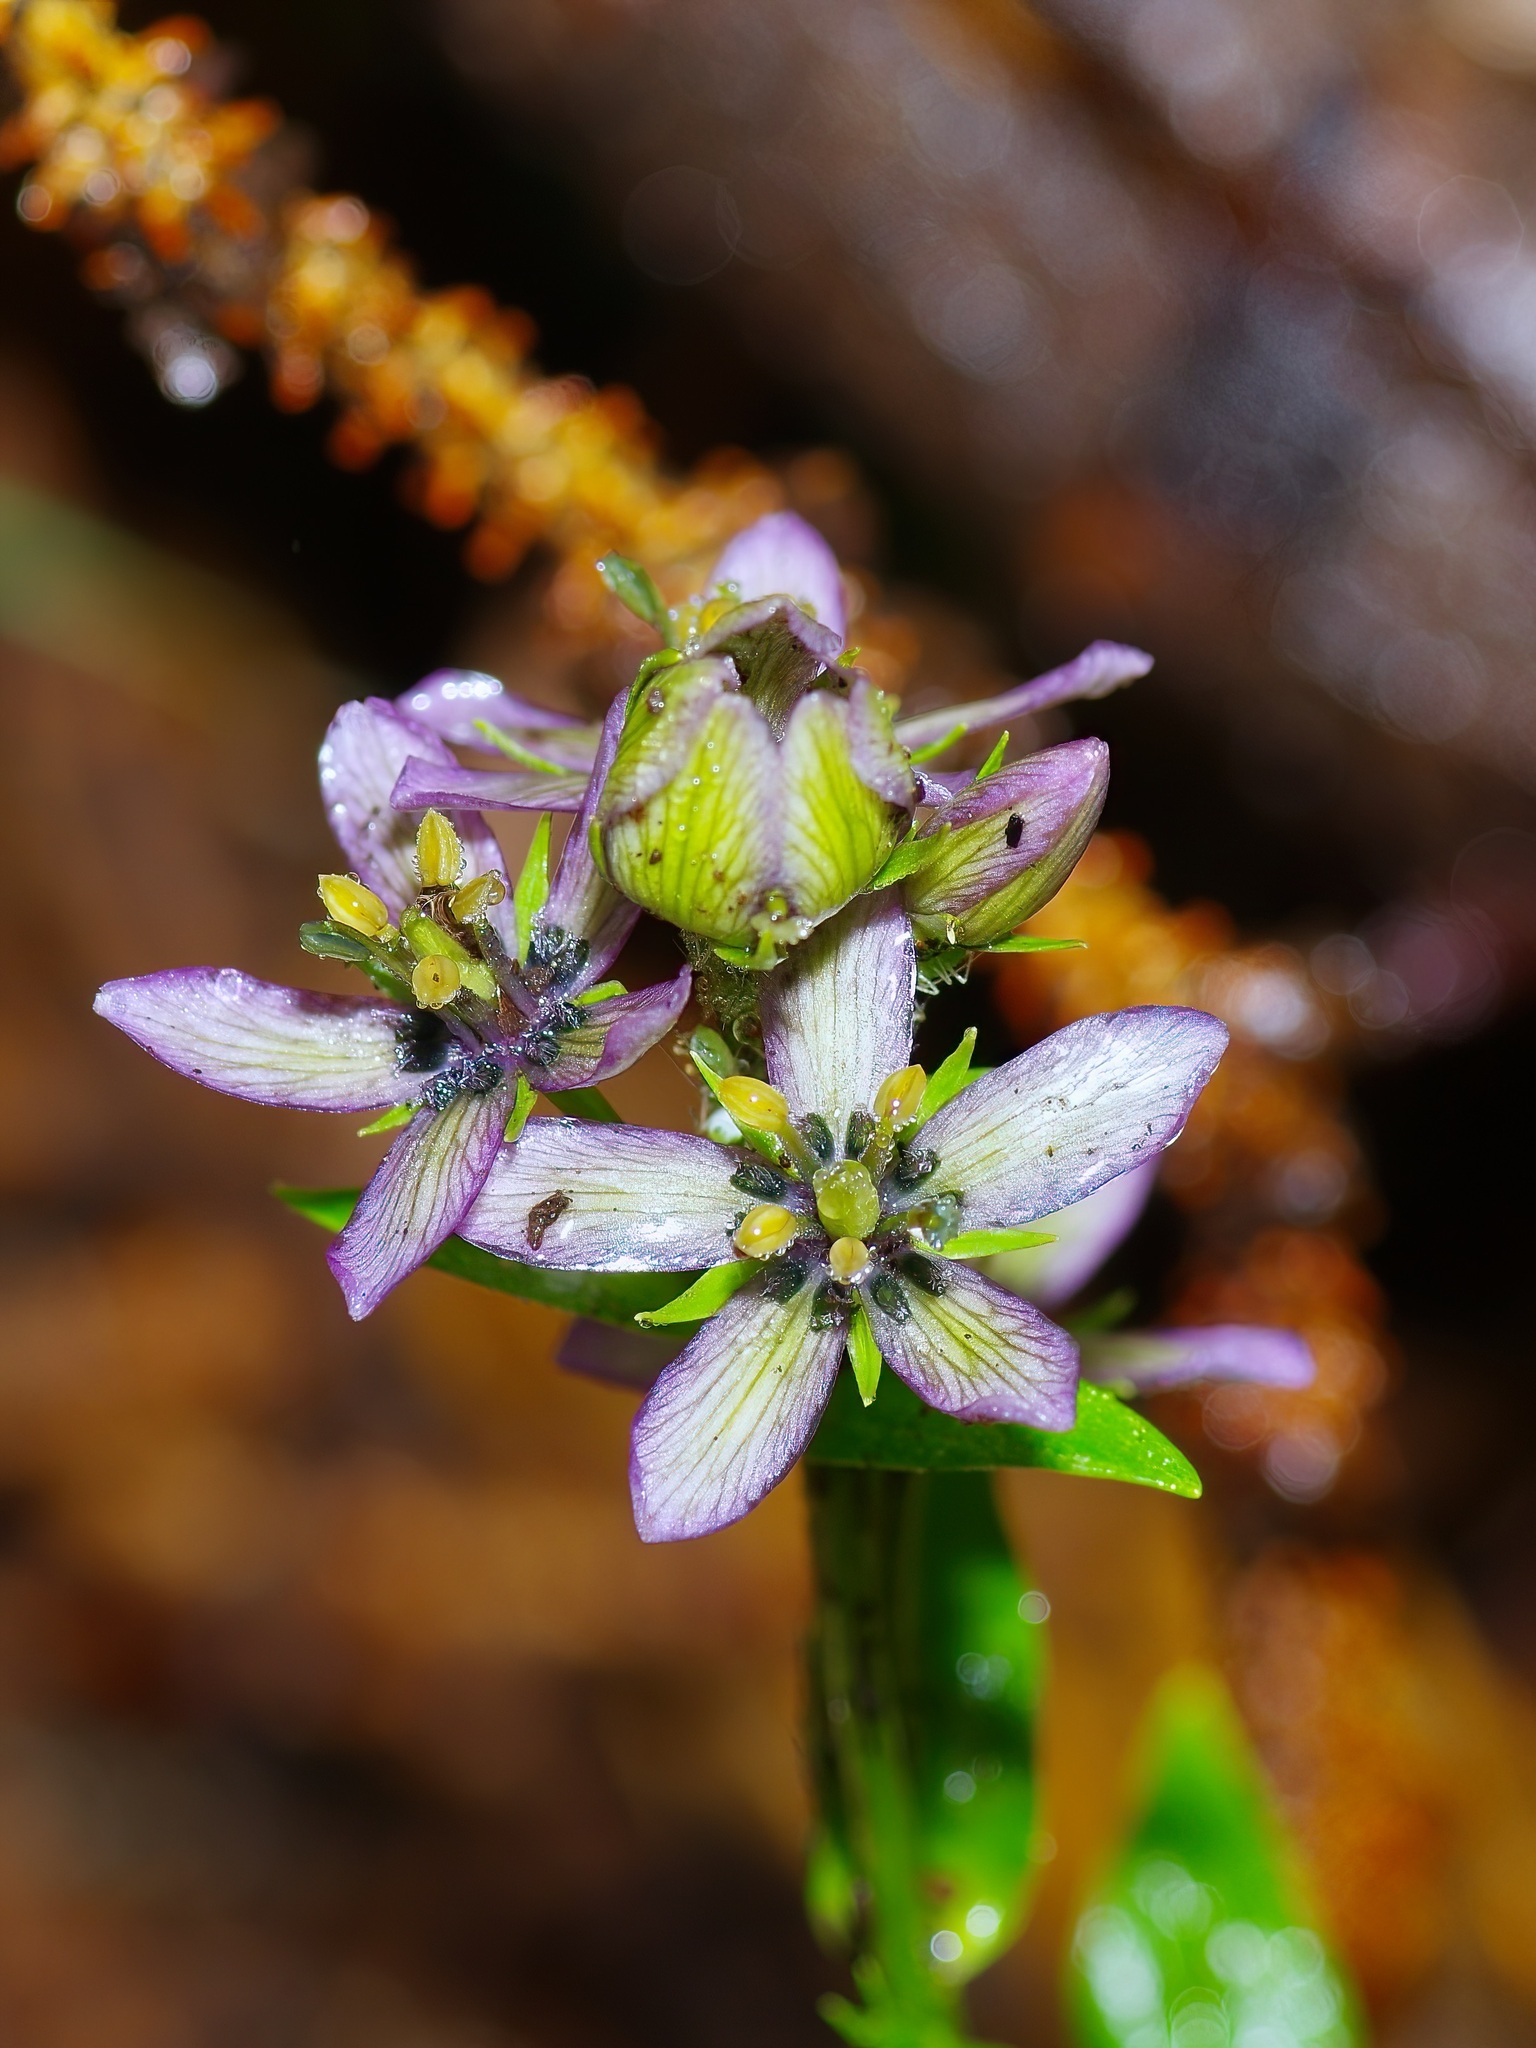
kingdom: Plantae
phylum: Tracheophyta
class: Magnoliopsida
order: Gentianales
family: Gentianaceae
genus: Swertia
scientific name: Swertia perennis
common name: Alpine bog swertia
